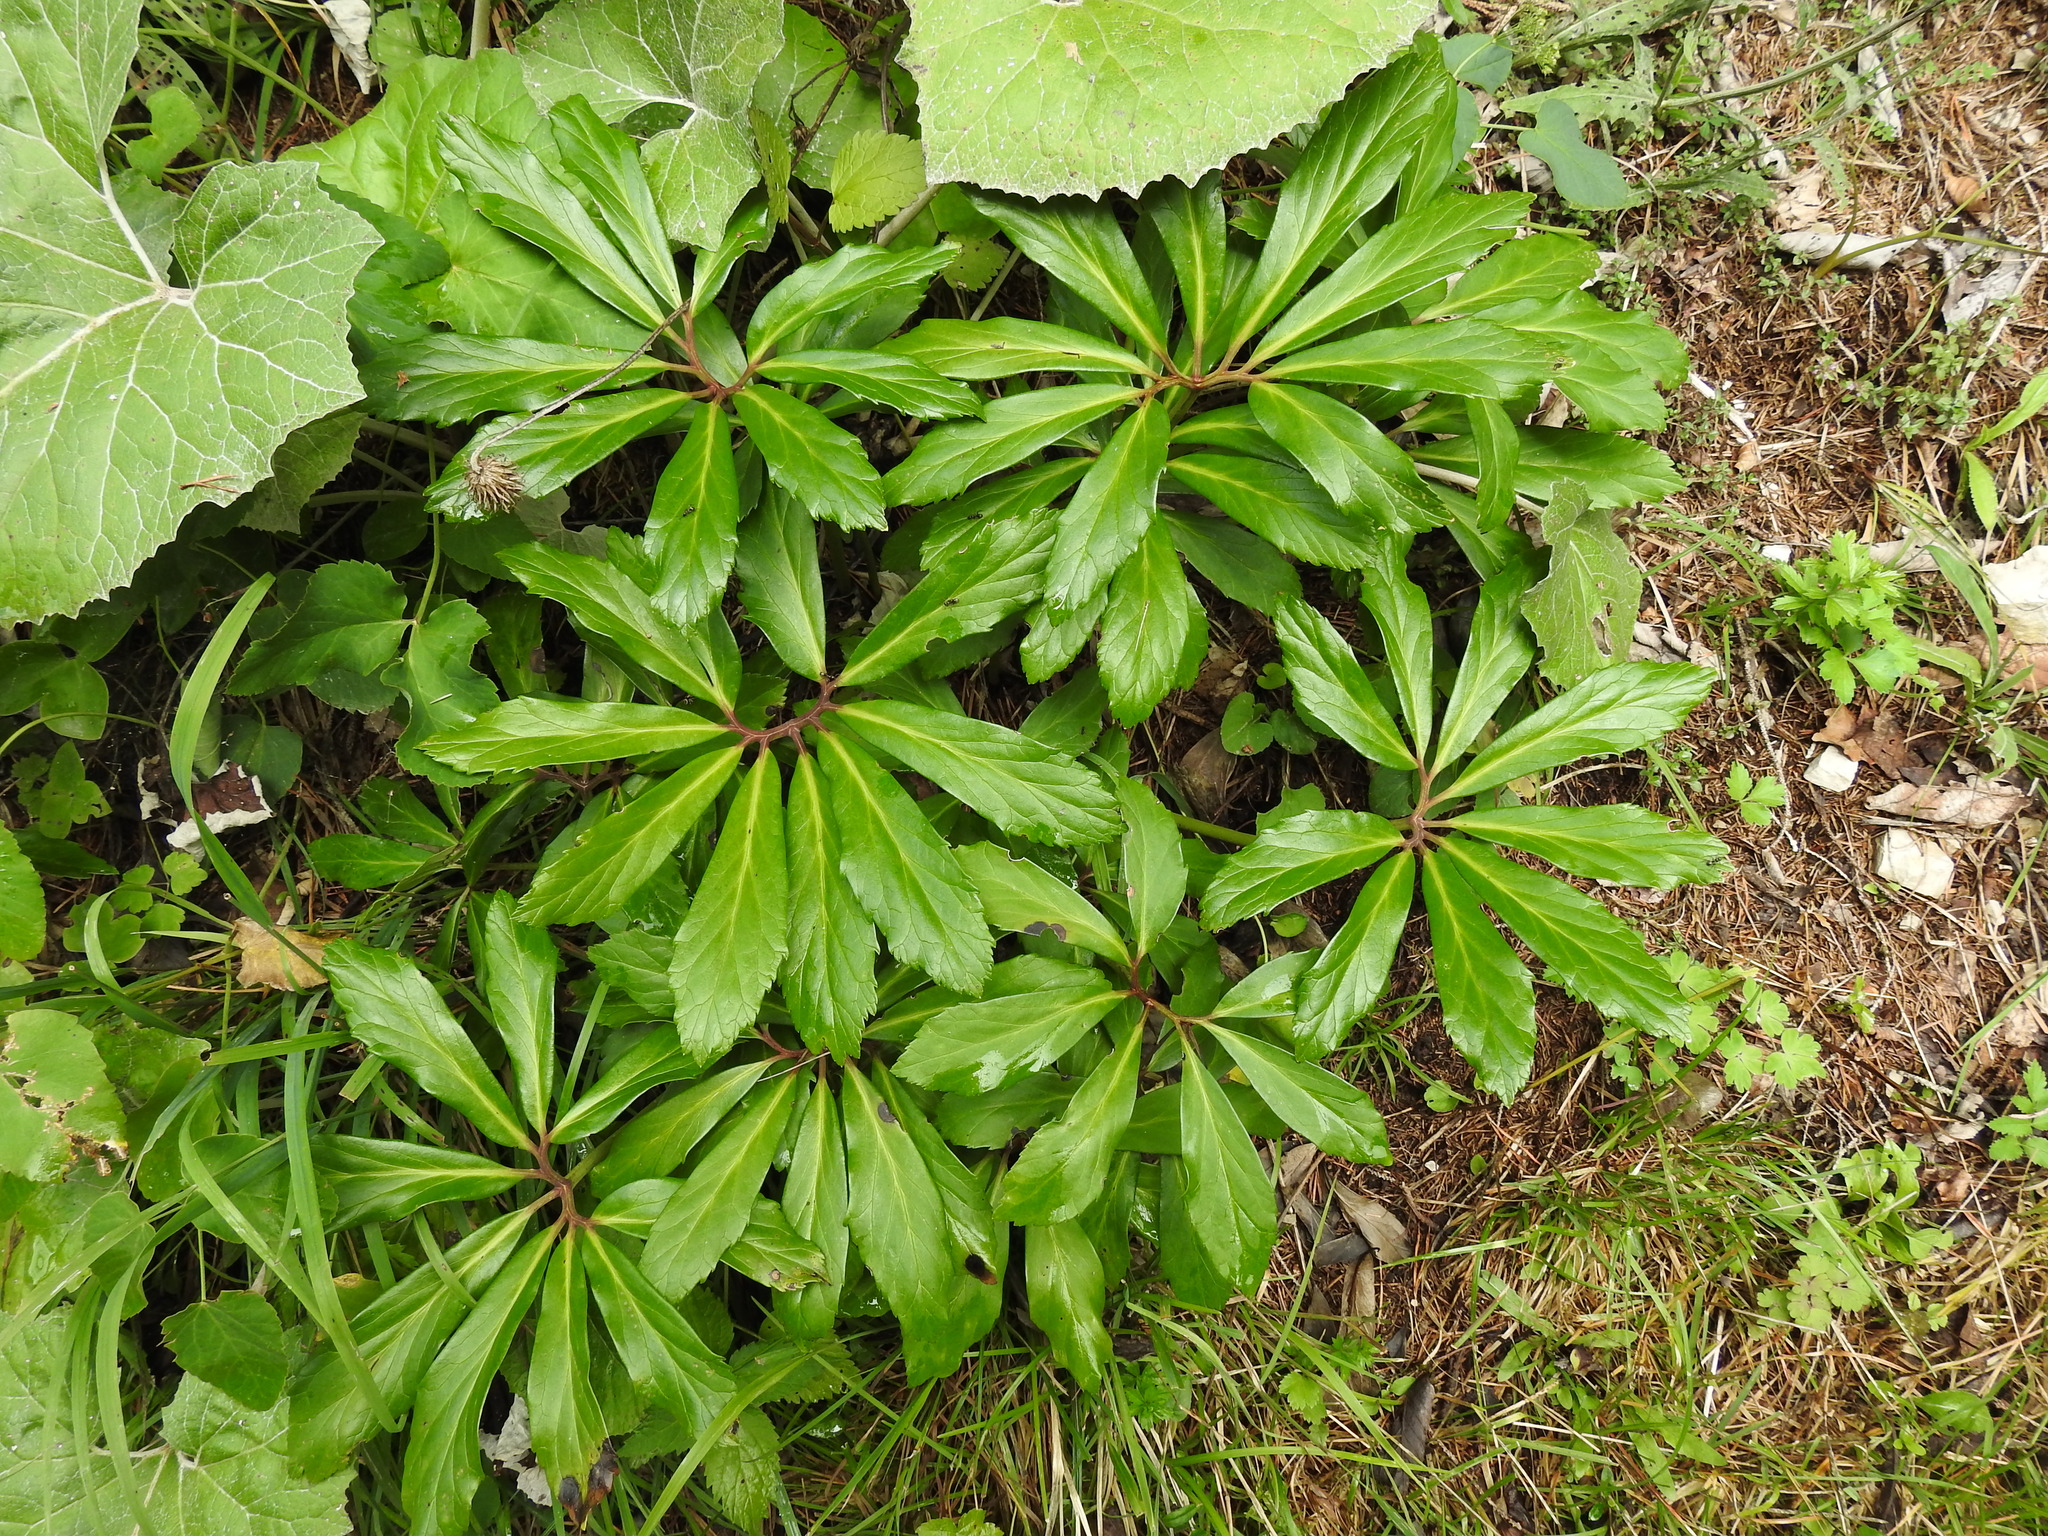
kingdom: Plantae
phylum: Tracheophyta
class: Magnoliopsida
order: Ranunculales
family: Ranunculaceae
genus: Helleborus
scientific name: Helleborus niger
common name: Black hellebore
